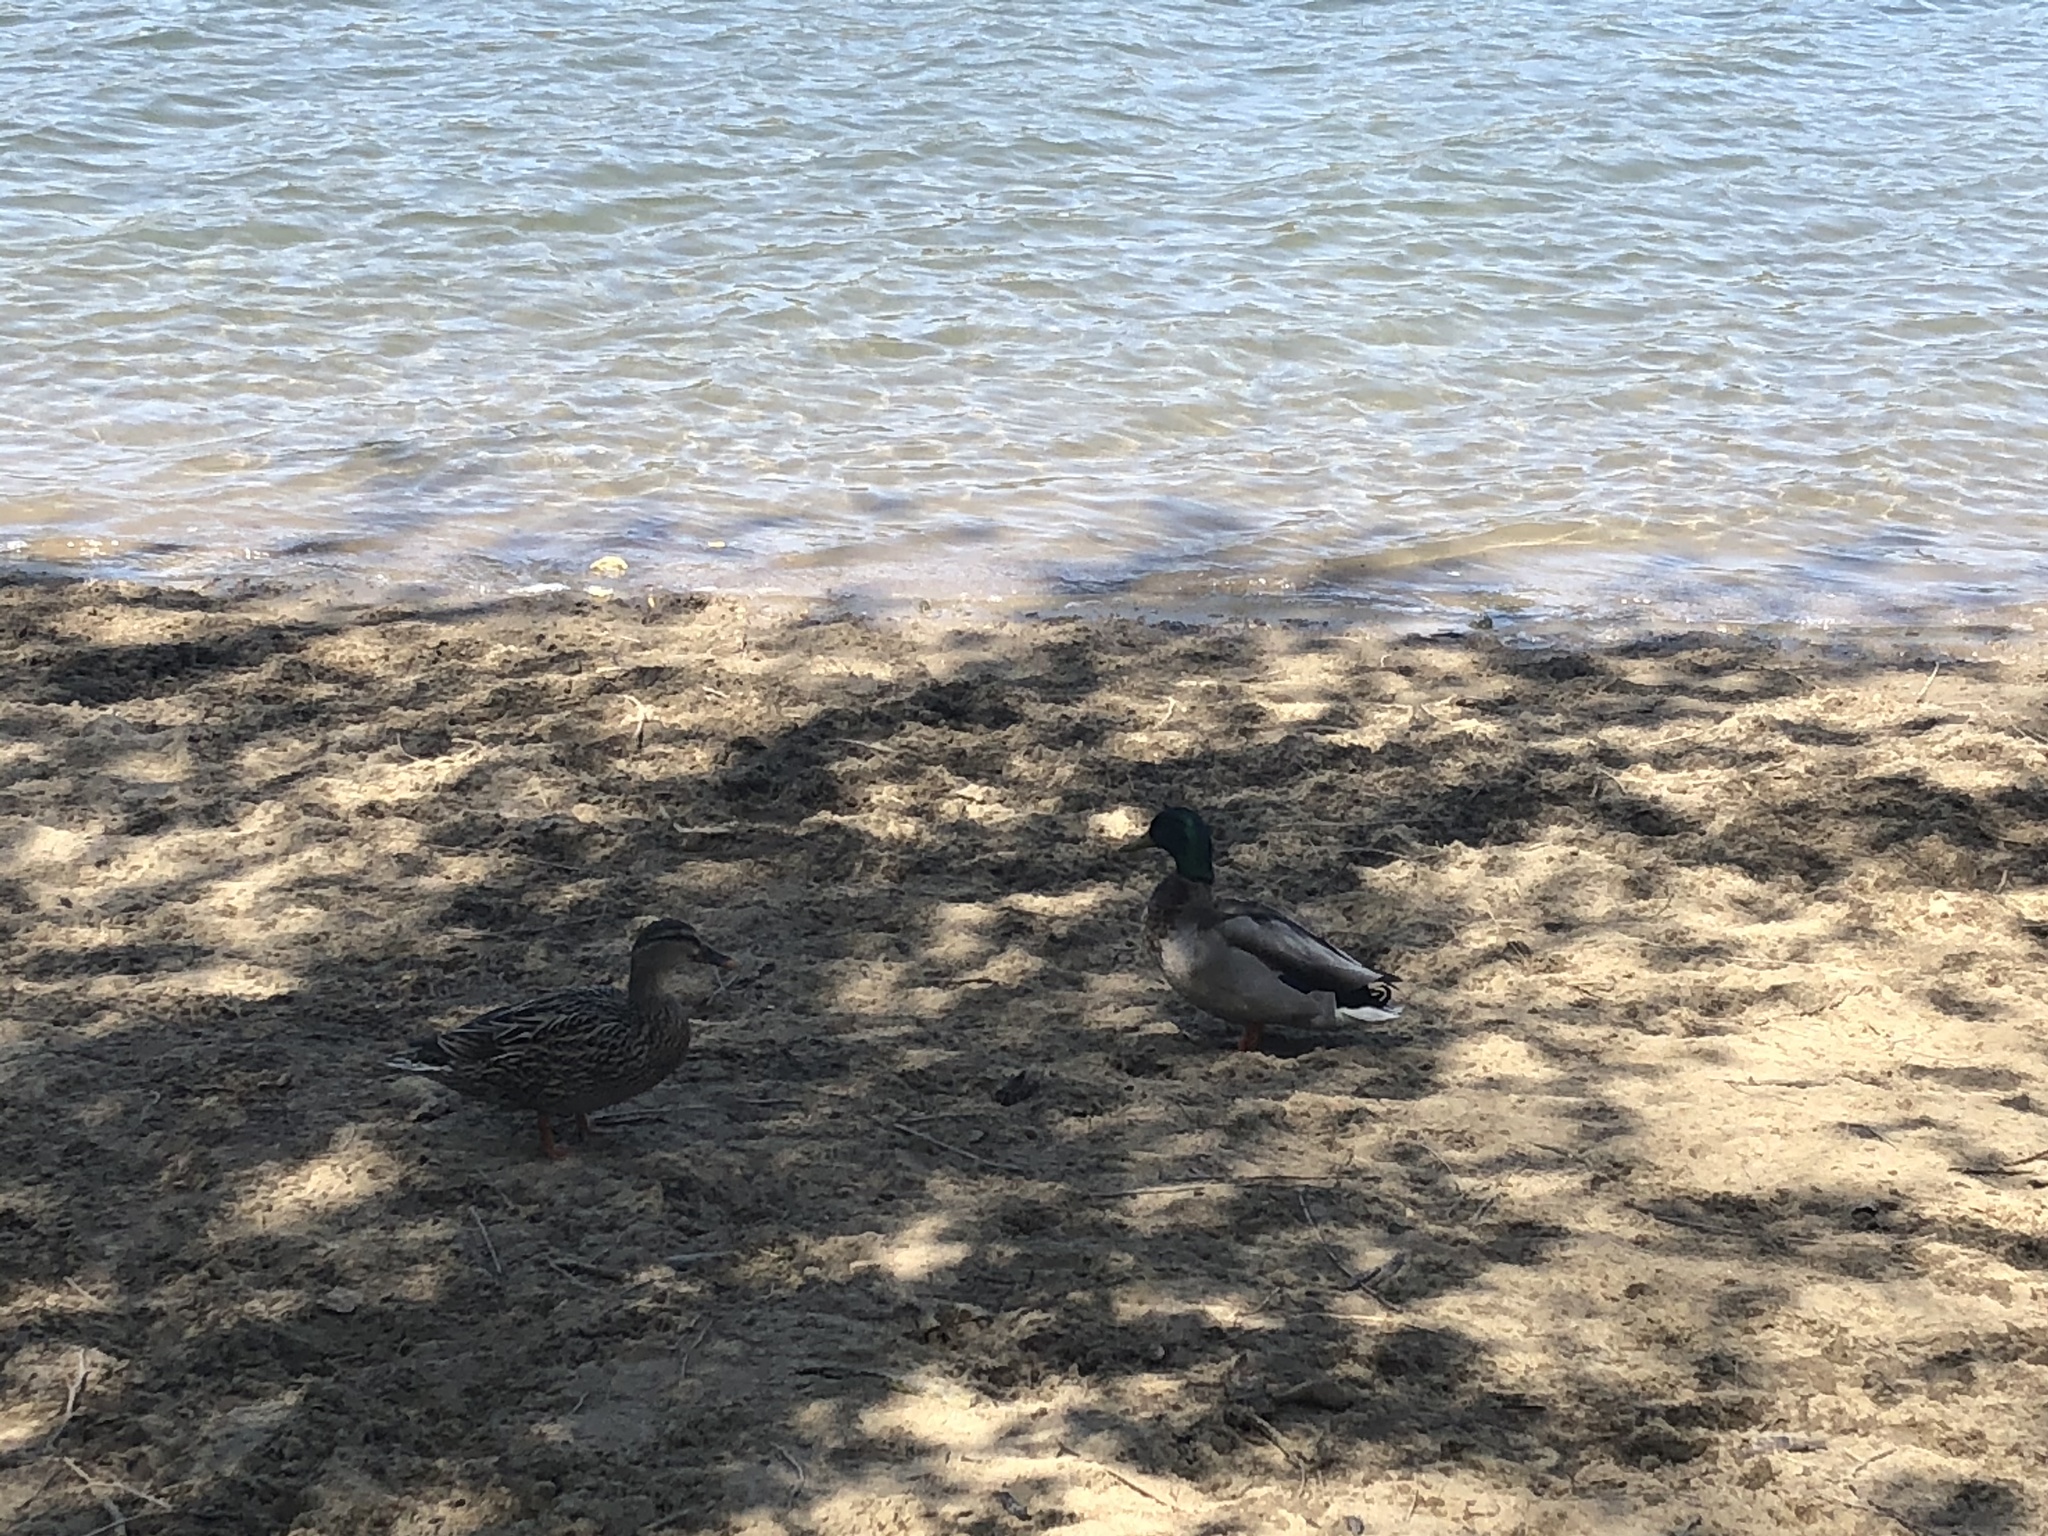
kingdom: Animalia
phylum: Chordata
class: Aves
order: Anseriformes
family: Anatidae
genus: Anas
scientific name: Anas platyrhynchos
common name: Mallard
